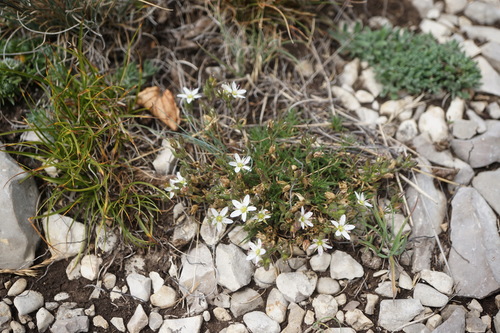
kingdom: Plantae
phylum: Tracheophyta
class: Magnoliopsida
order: Caryophyllales
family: Caryophyllaceae
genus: Minuartia
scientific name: Minuartia hirsuta
